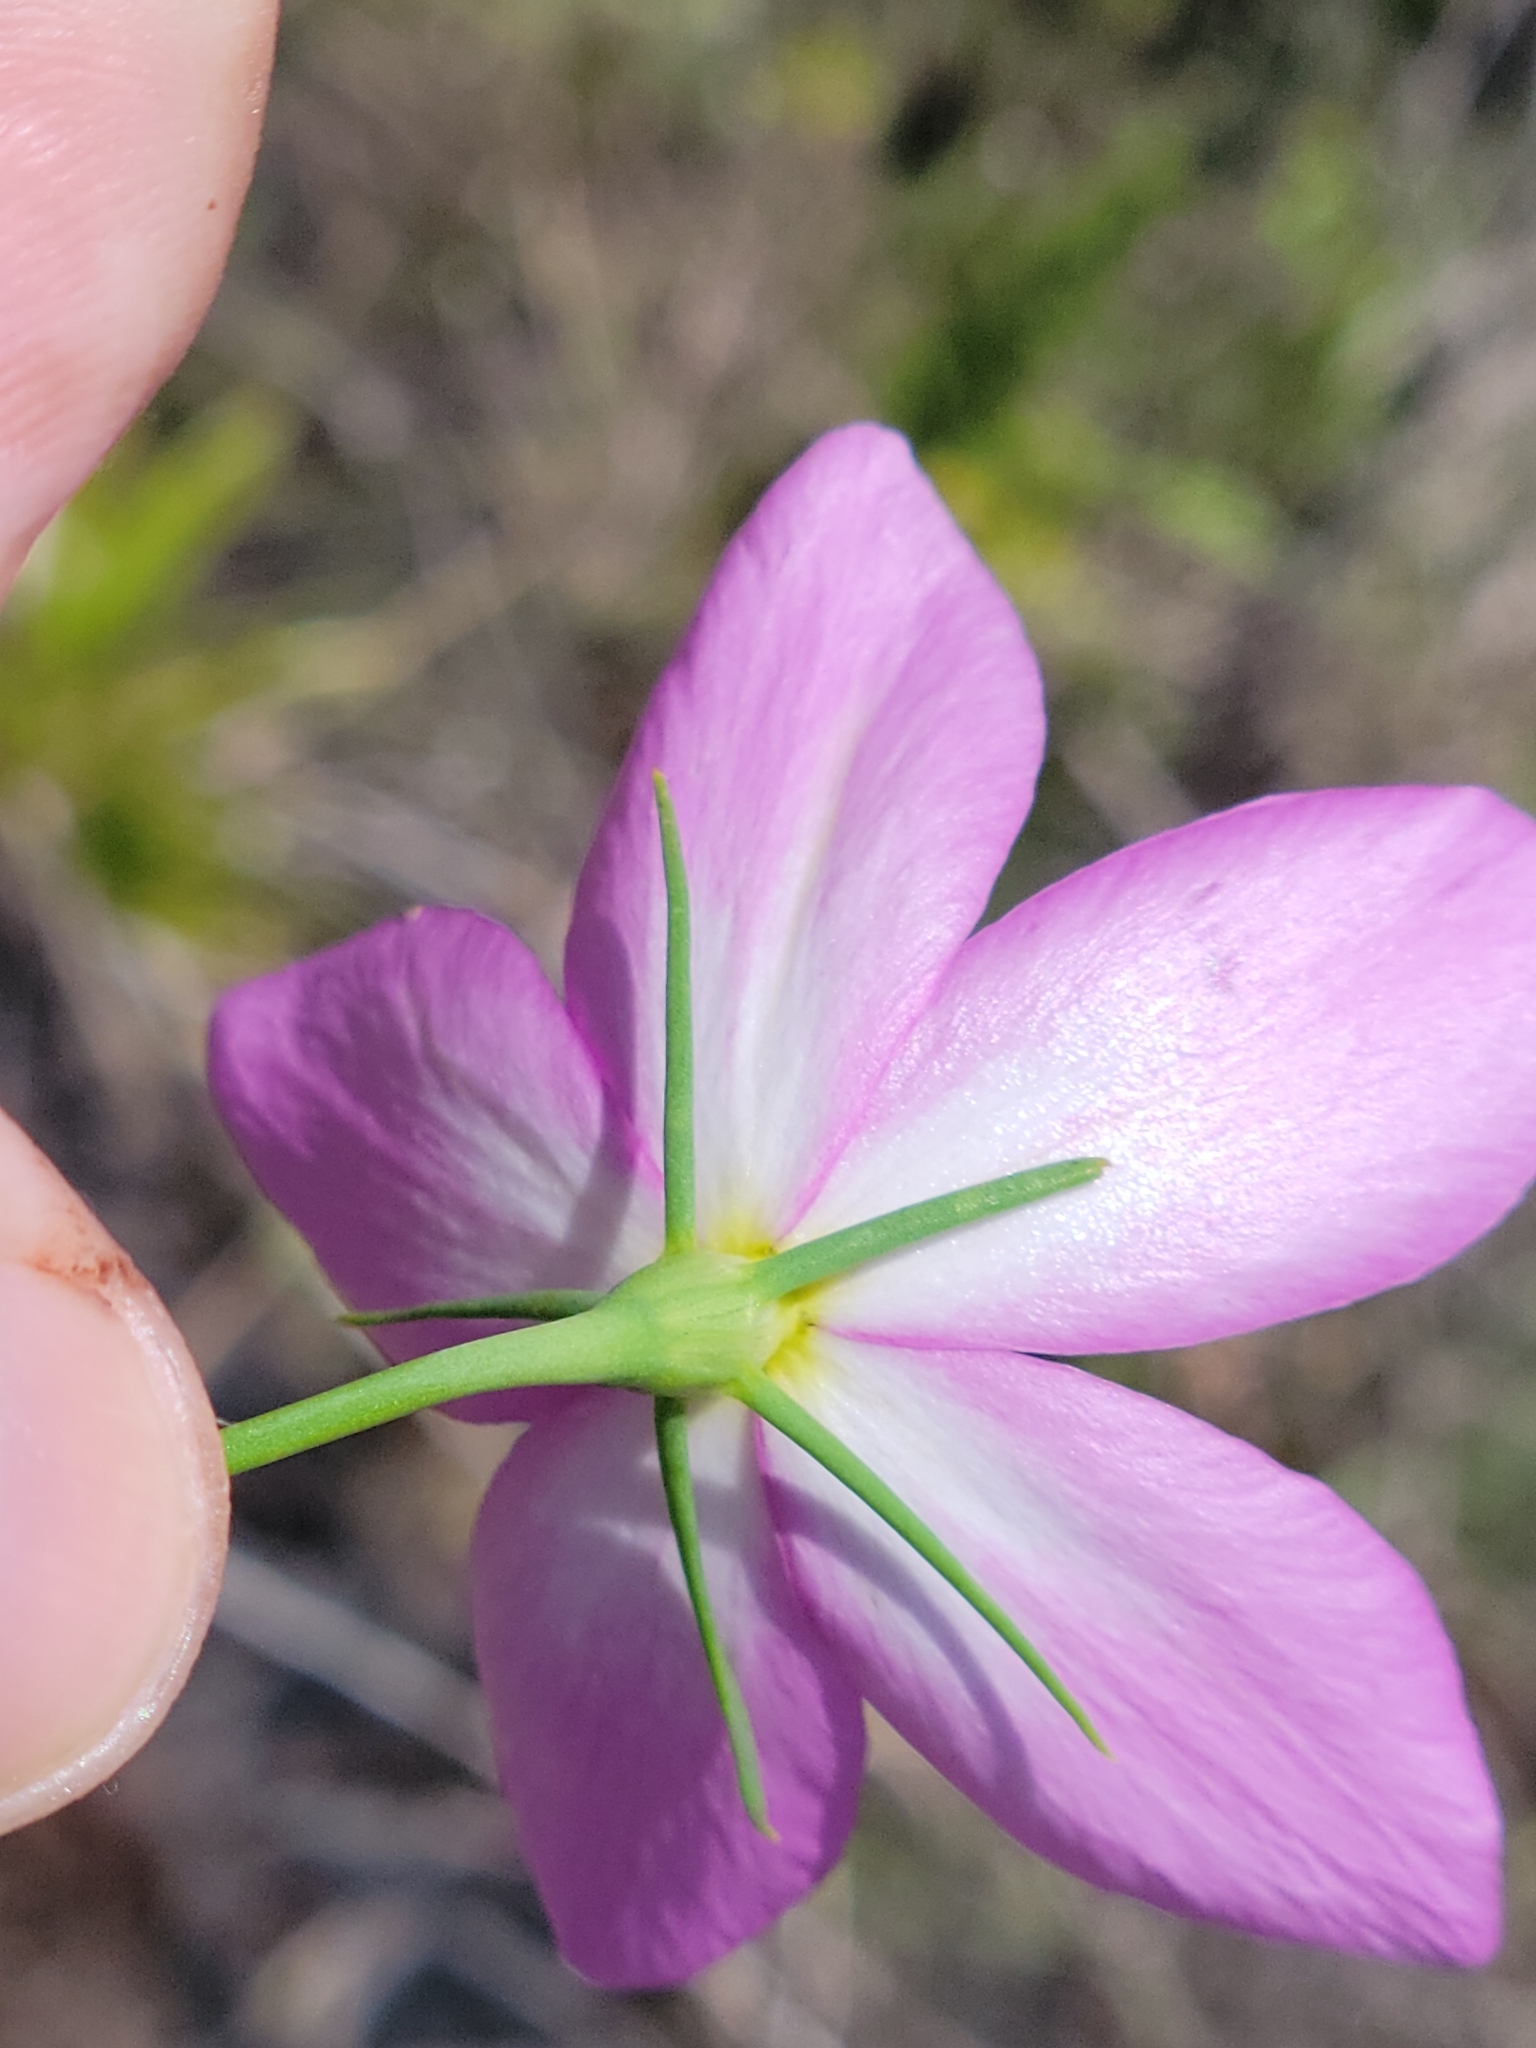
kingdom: Plantae
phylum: Tracheophyta
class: Magnoliopsida
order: Gentianales
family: Gentianaceae
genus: Sabatia
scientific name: Sabatia grandiflora
